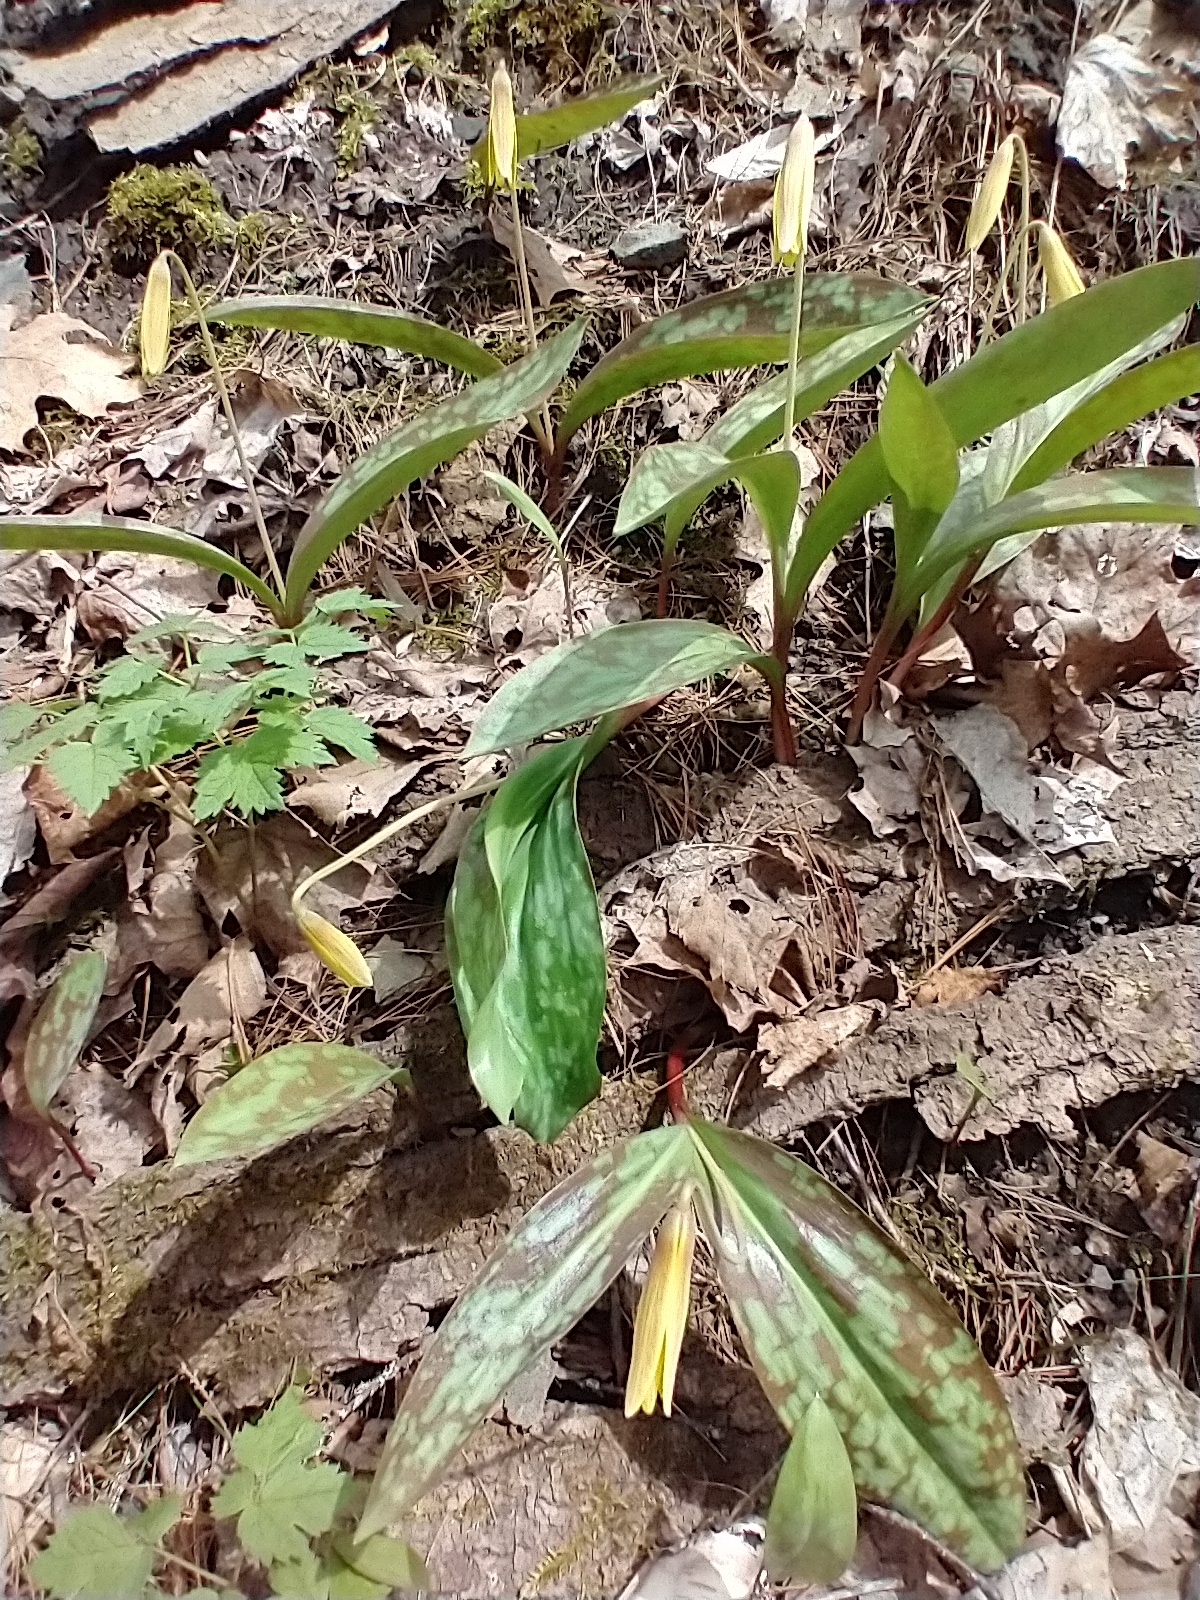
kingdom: Plantae
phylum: Tracheophyta
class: Liliopsida
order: Liliales
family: Liliaceae
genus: Erythronium
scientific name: Erythronium americanum
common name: Yellow adder's-tongue
